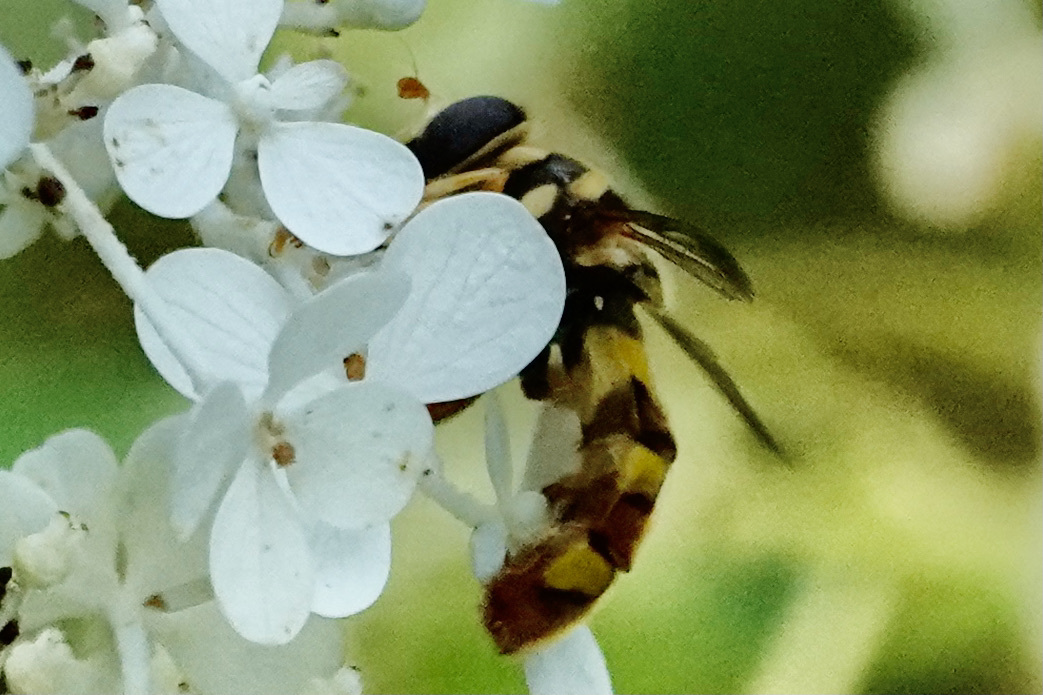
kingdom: Animalia
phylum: Arthropoda
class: Insecta
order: Diptera
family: Syrphidae
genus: Milesia
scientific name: Milesia virginiensis
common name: Virginia giant
